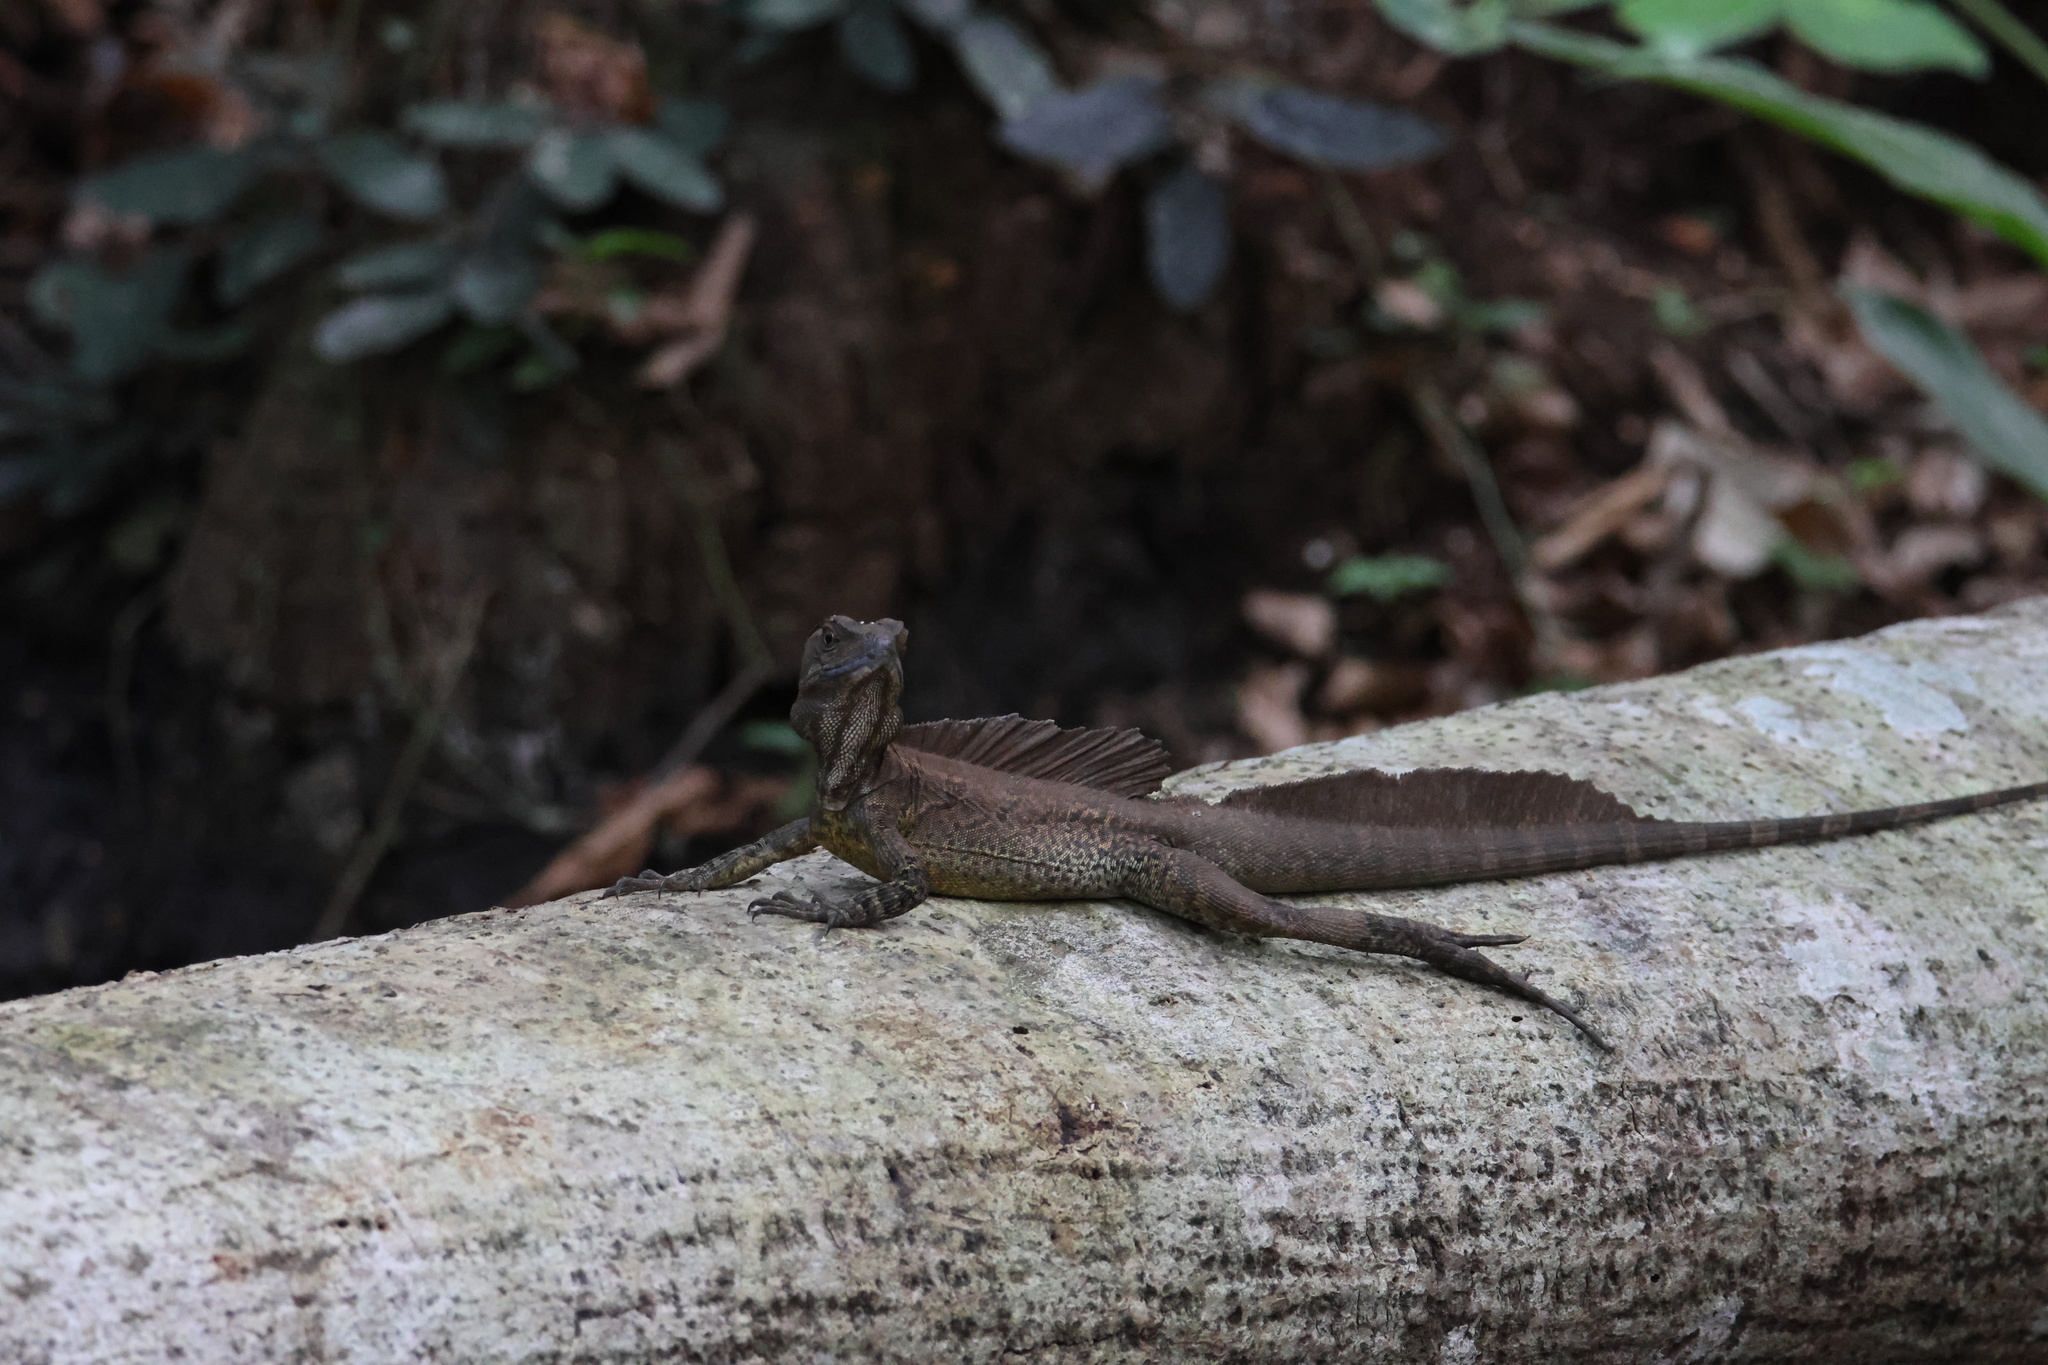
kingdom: Animalia
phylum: Chordata
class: Squamata
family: Corytophanidae
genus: Basiliscus
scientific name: Basiliscus basiliscus
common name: Common basilisk
